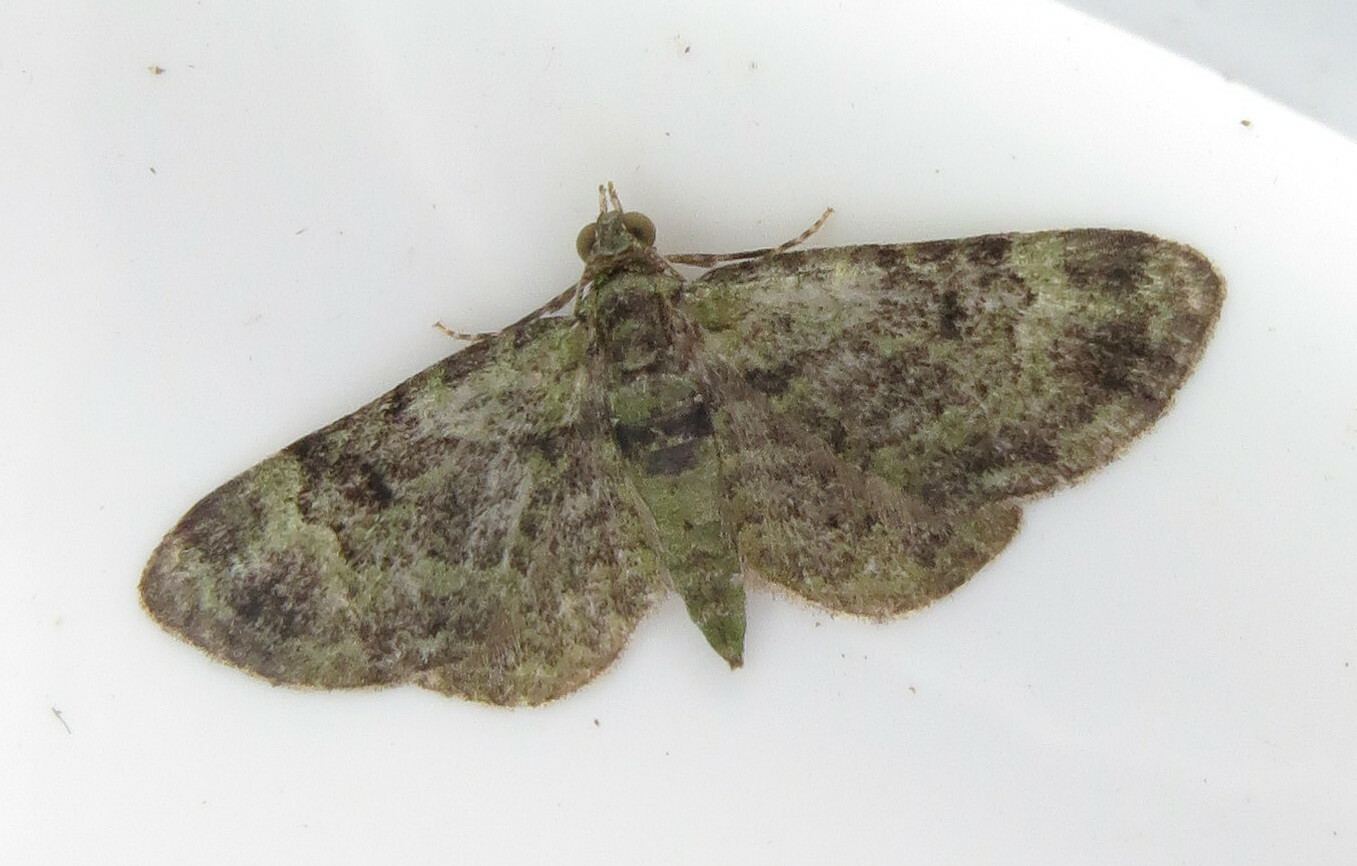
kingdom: Animalia
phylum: Arthropoda
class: Insecta
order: Lepidoptera
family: Geometridae
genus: Pasiphila
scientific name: Pasiphila rectangulata
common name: Green pug
